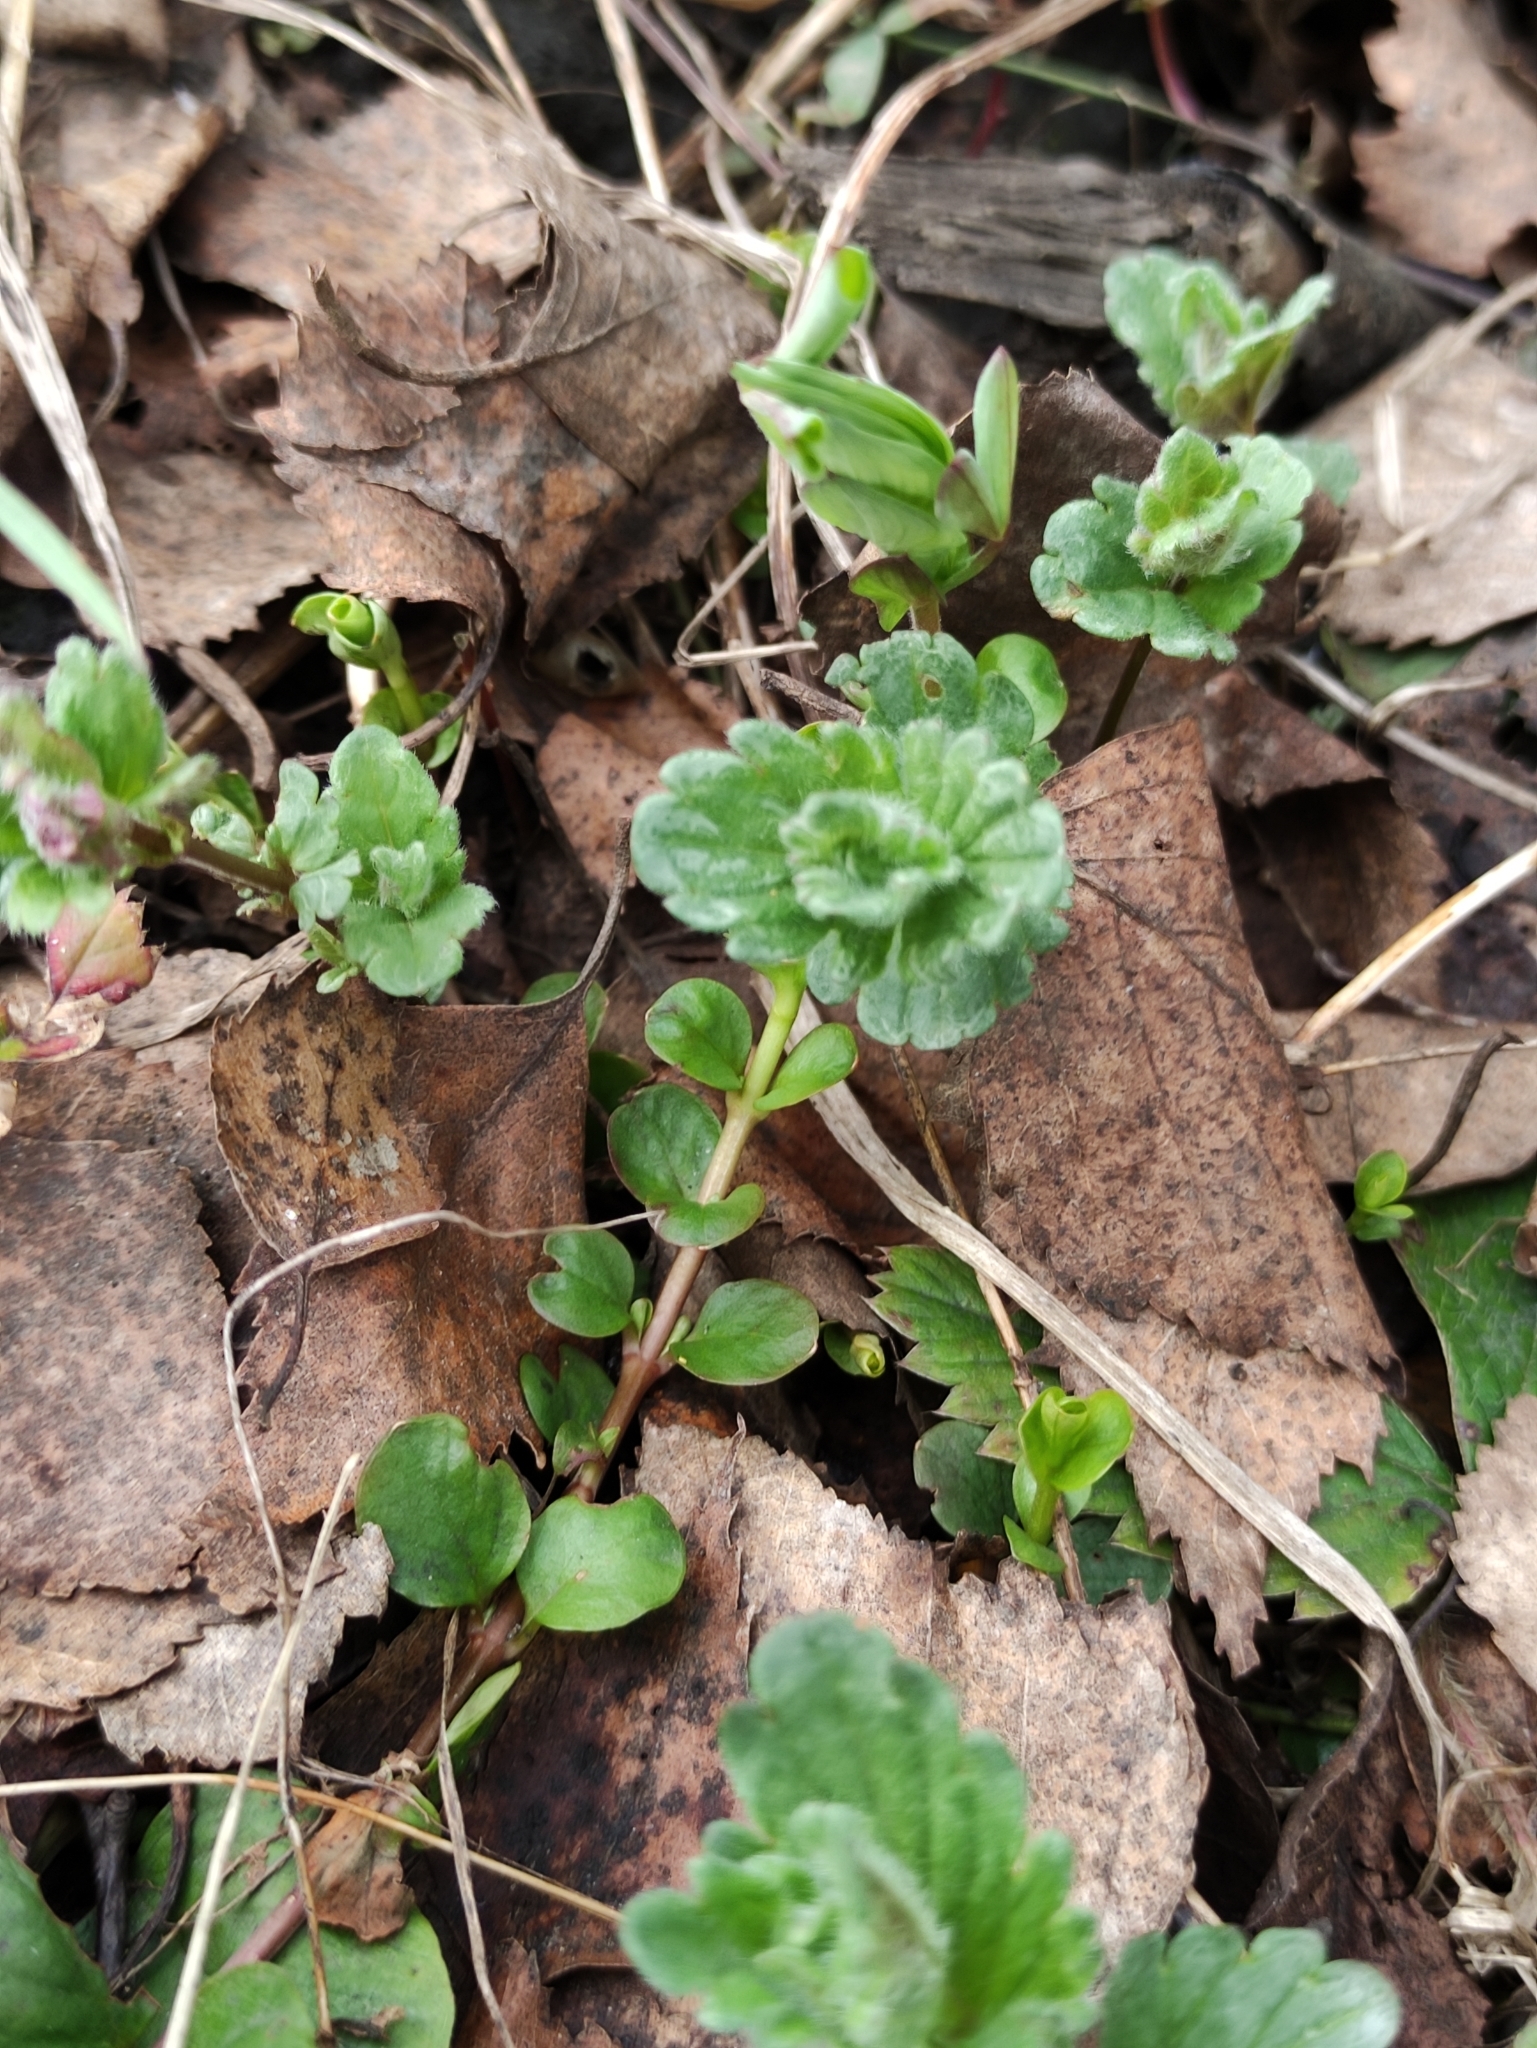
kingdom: Plantae
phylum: Tracheophyta
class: Magnoliopsida
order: Lamiales
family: Plantaginaceae
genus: Veronica
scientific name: Veronica chamaedrys
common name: Germander speedwell
